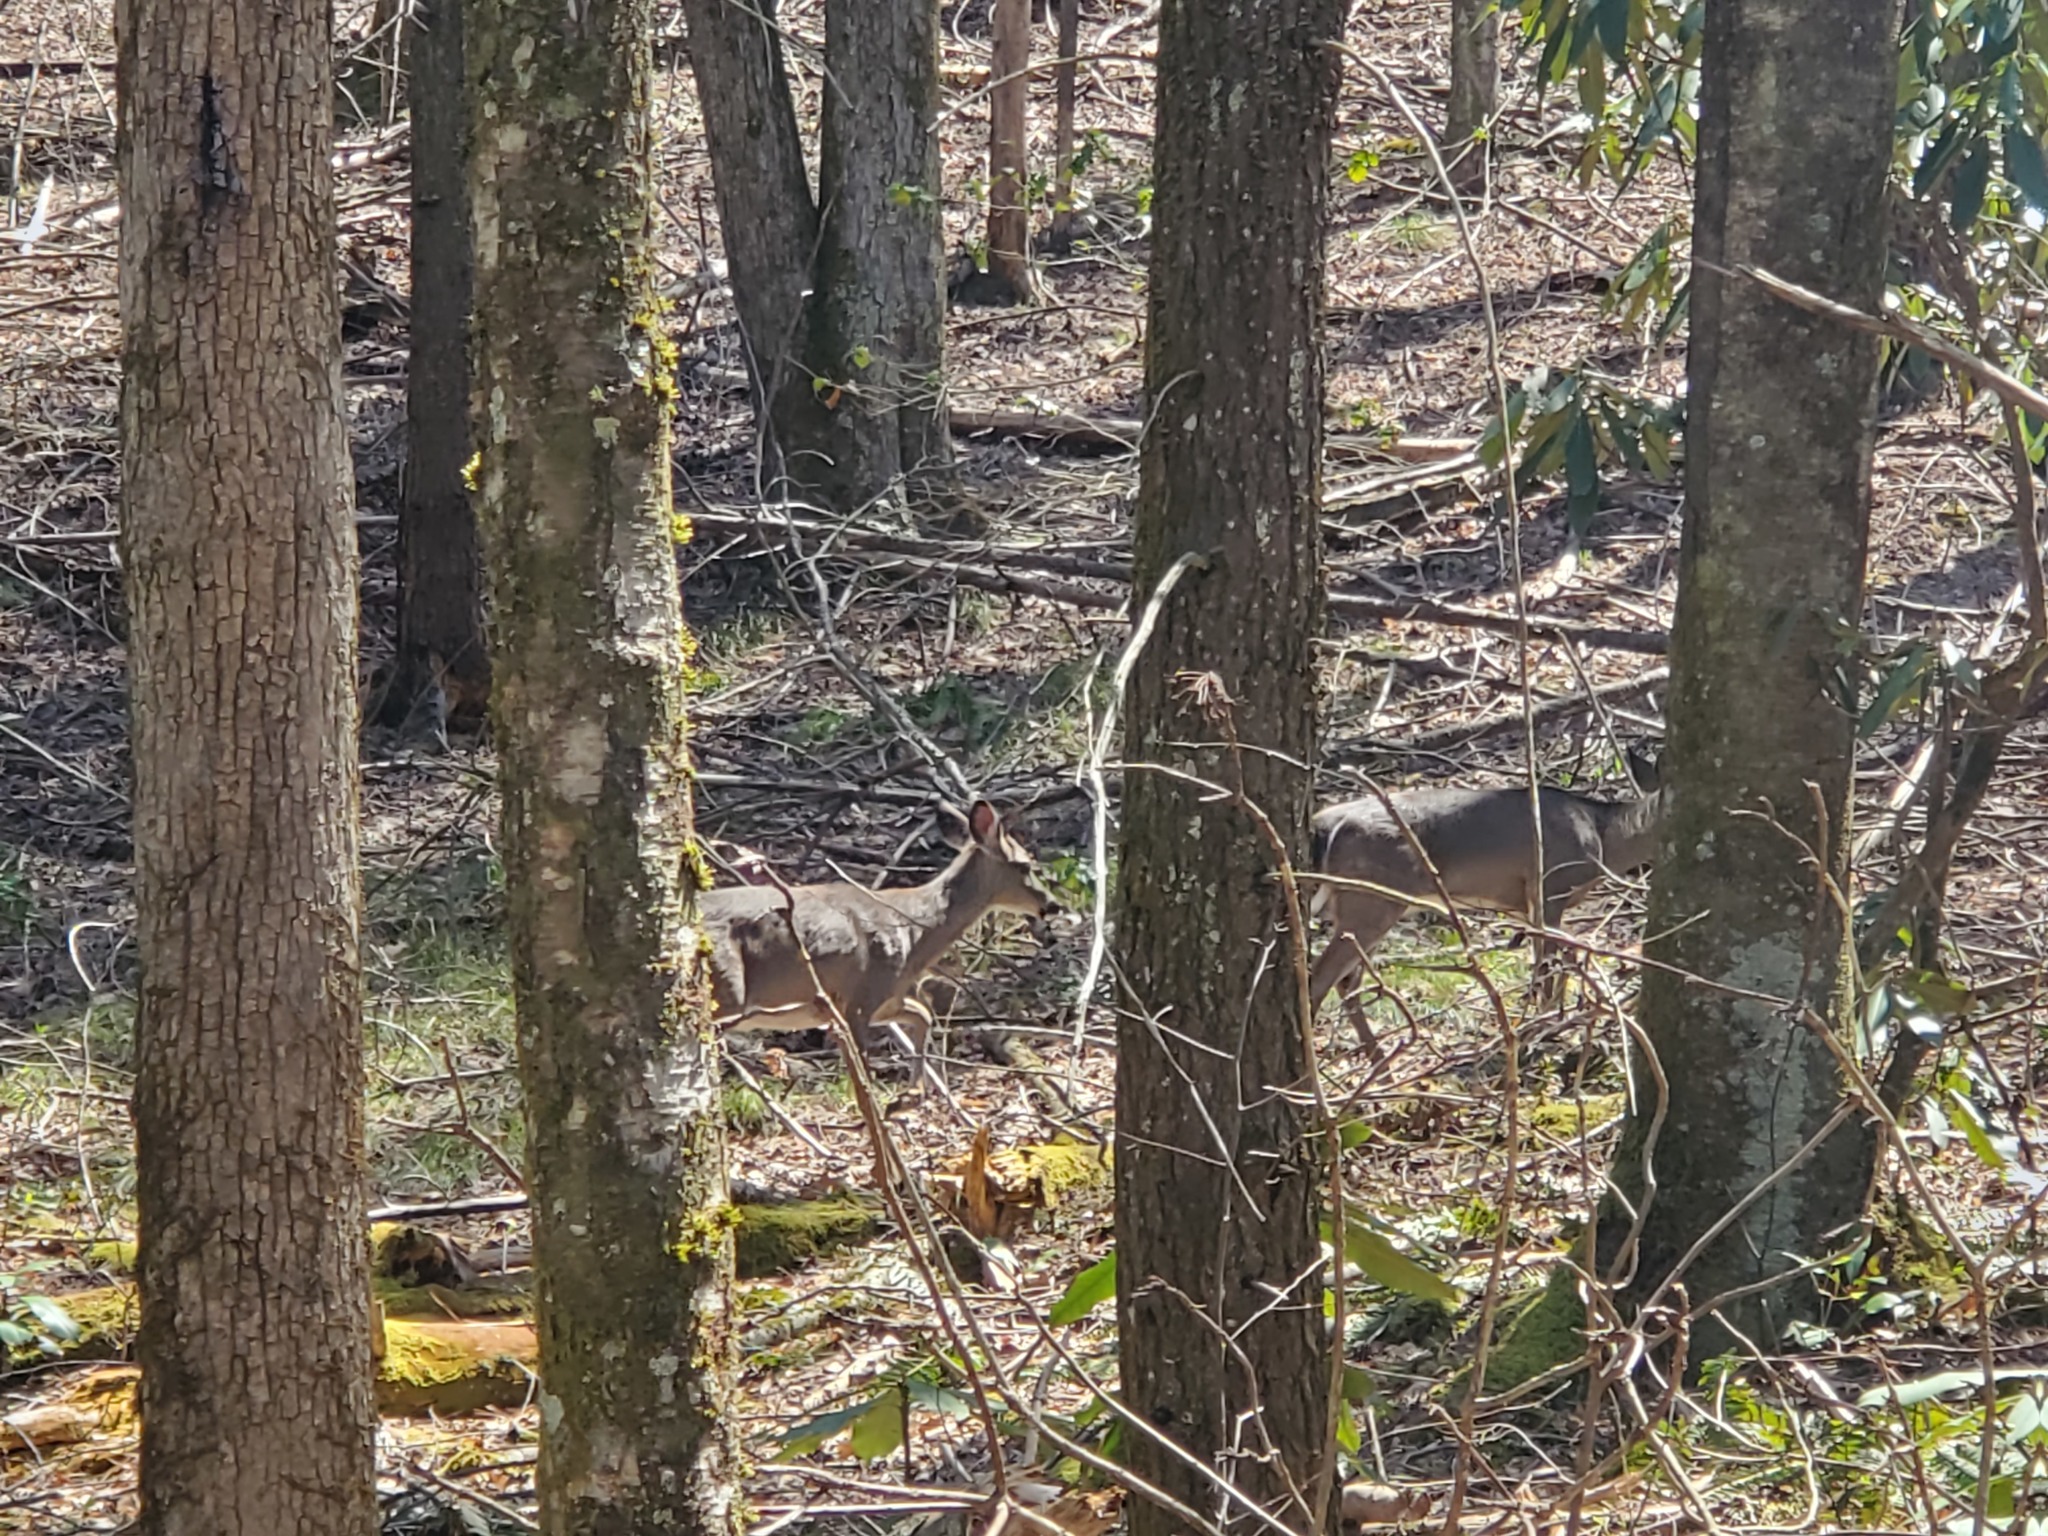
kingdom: Animalia
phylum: Chordata
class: Mammalia
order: Artiodactyla
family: Cervidae
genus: Odocoileus
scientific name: Odocoileus virginianus
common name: White-tailed deer
